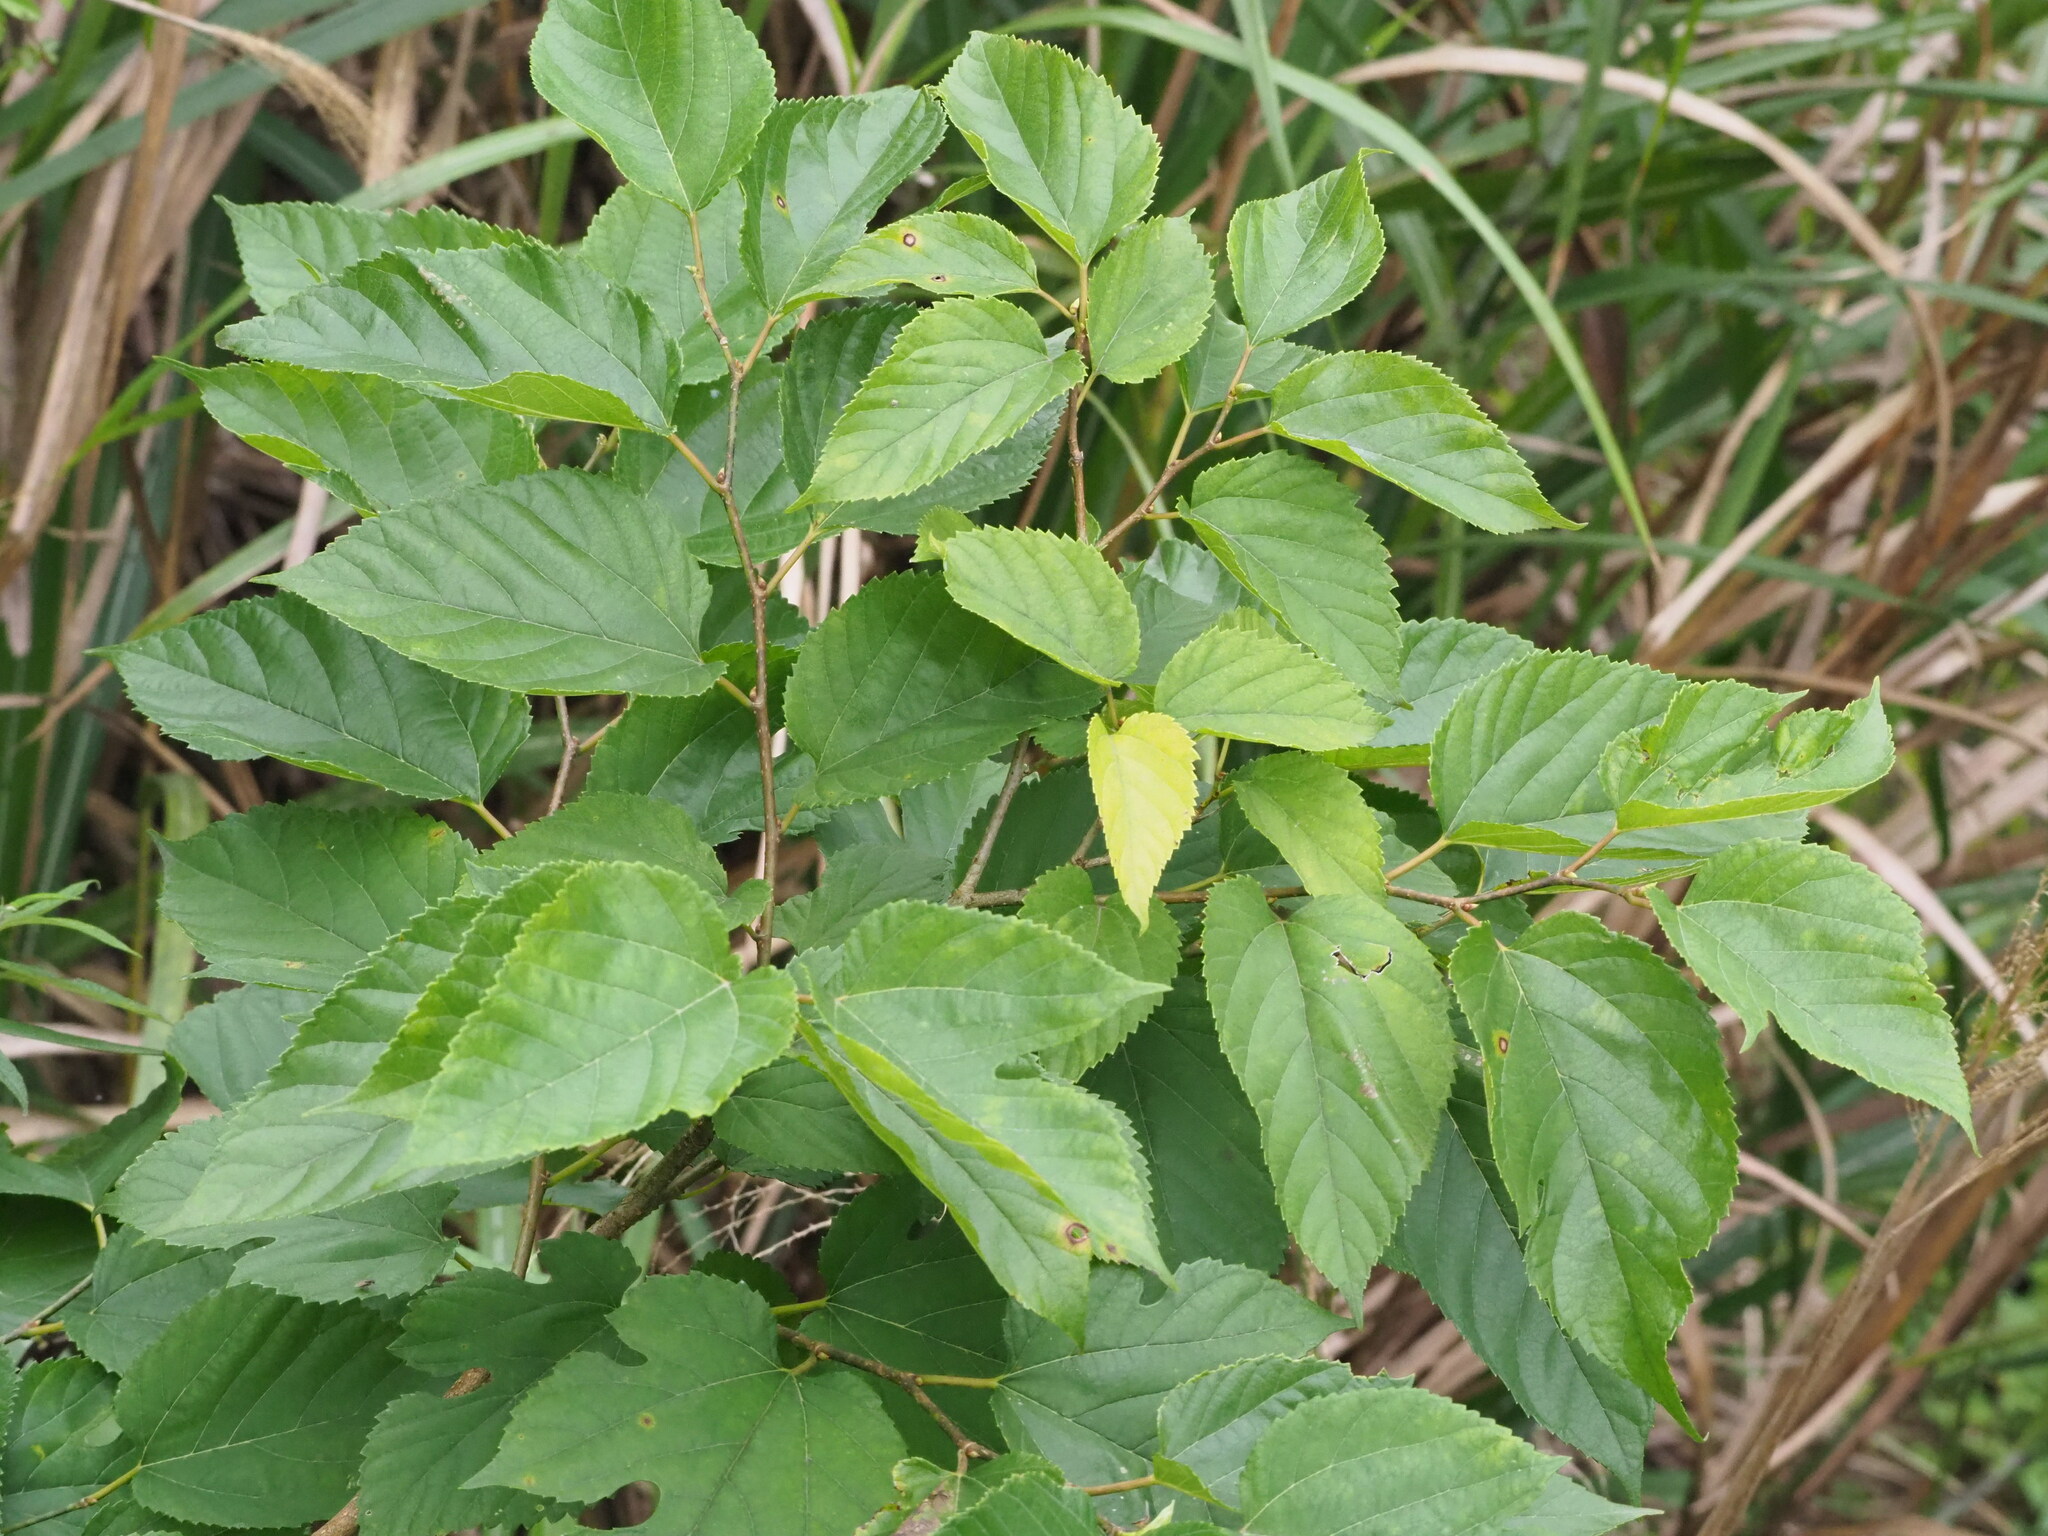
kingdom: Plantae
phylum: Tracheophyta
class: Magnoliopsida
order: Rosales
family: Moraceae
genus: Morus
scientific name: Morus indica
